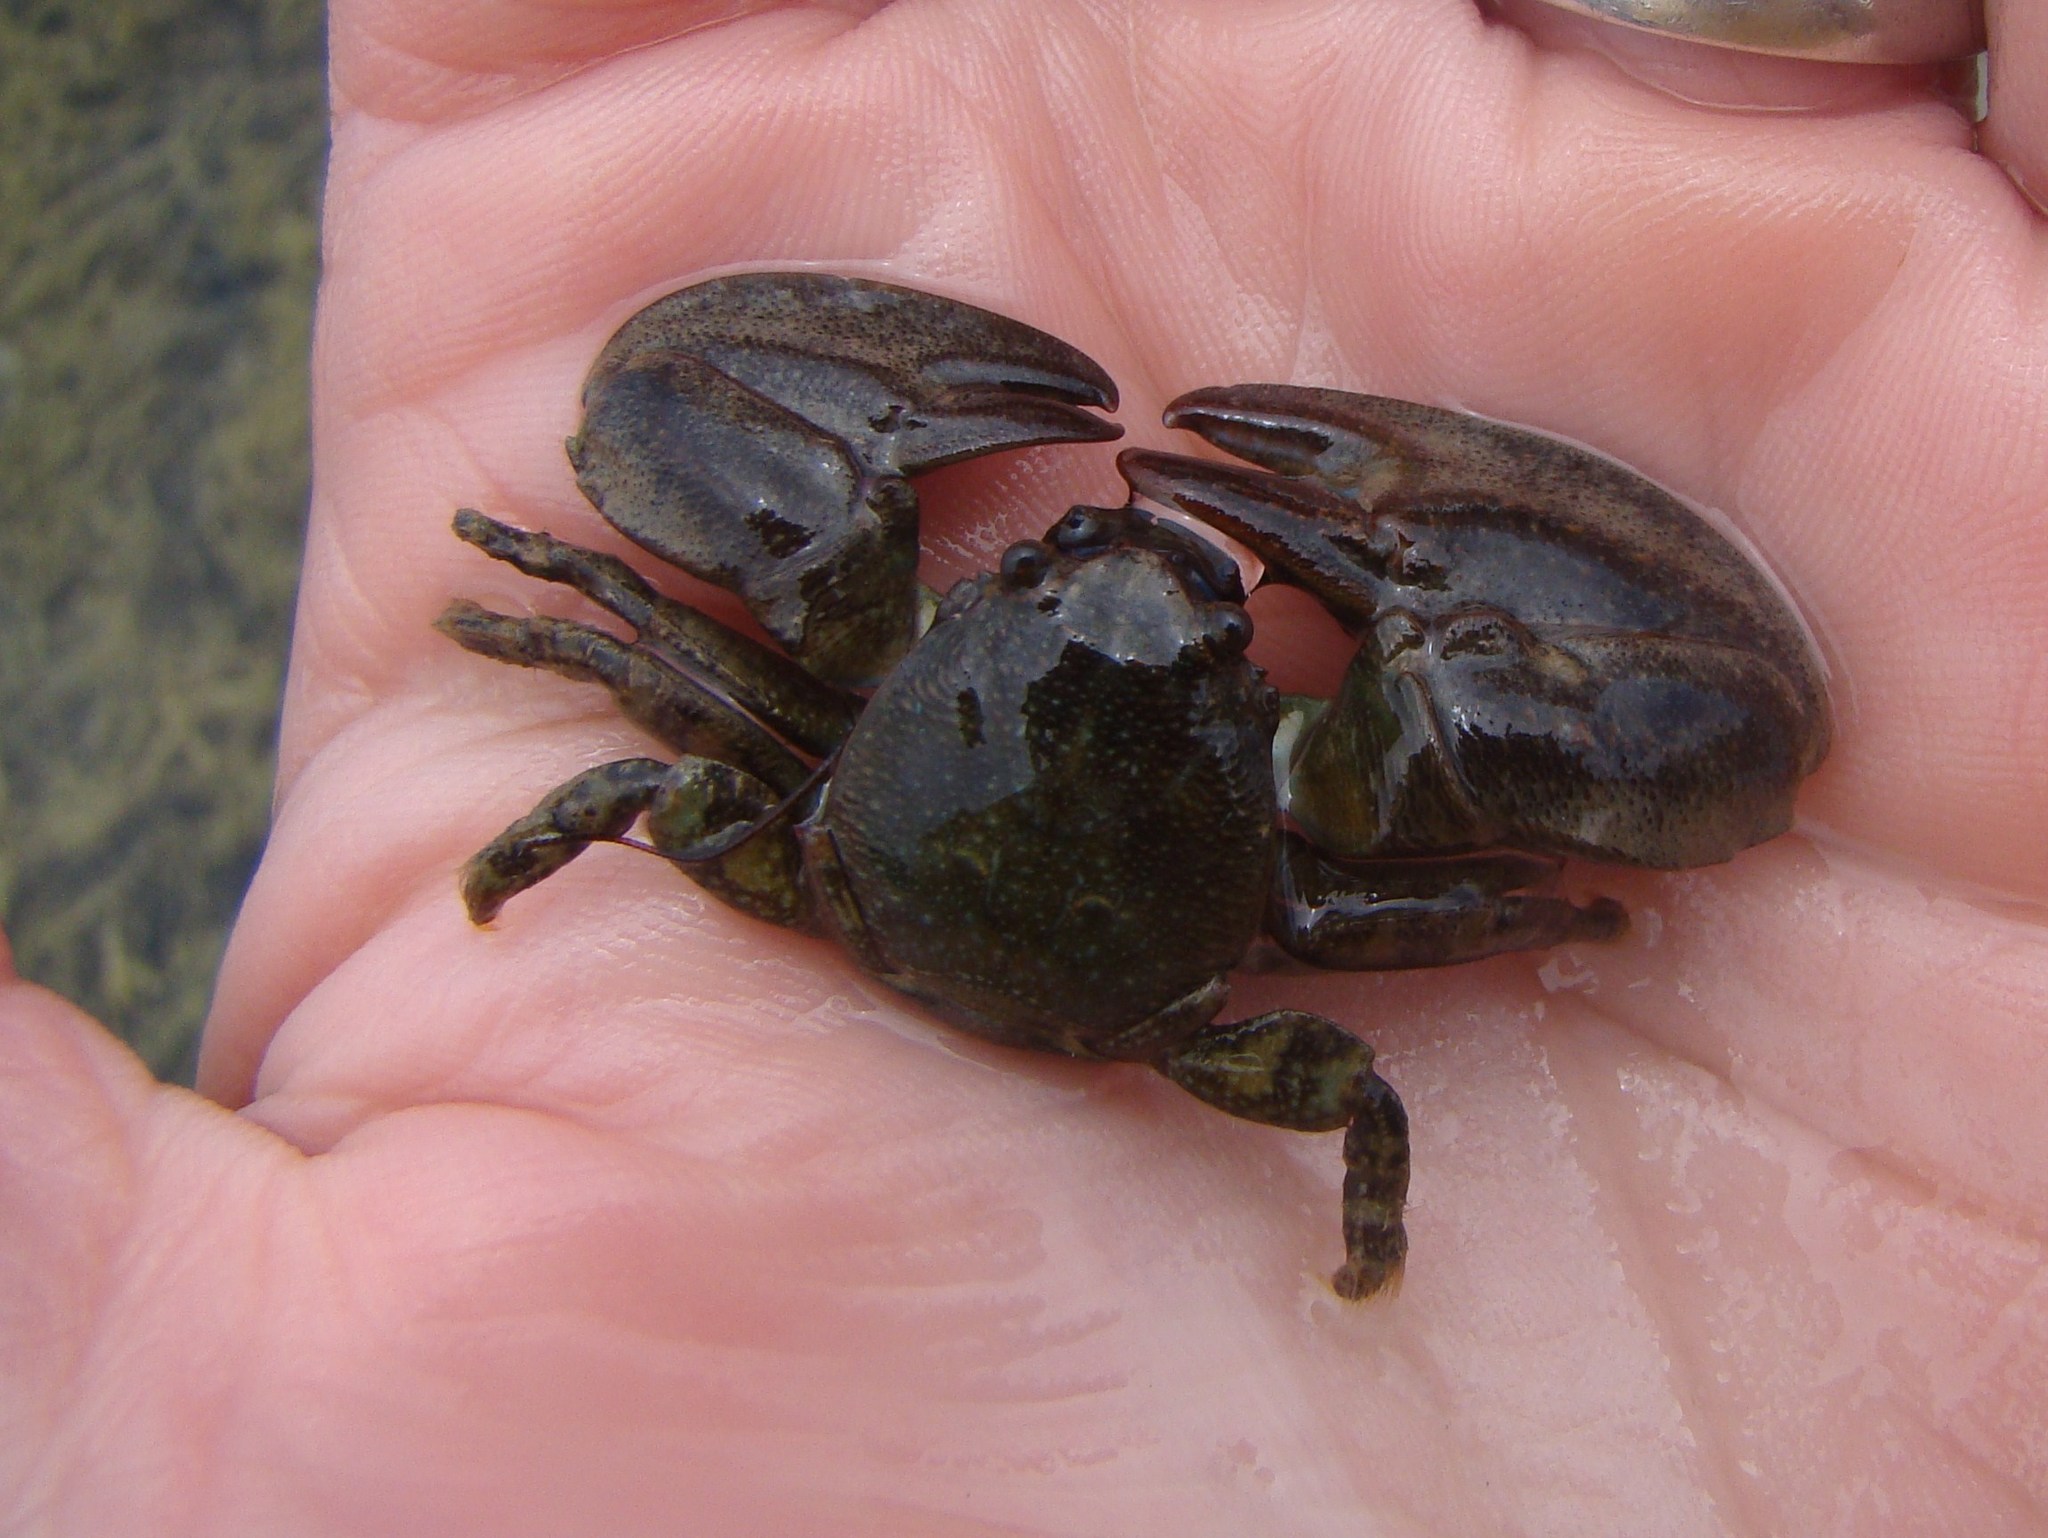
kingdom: Animalia
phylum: Arthropoda
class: Malacostraca
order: Decapoda
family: Porcellanidae
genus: Petrolisthes
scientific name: Petrolisthes elongatus
